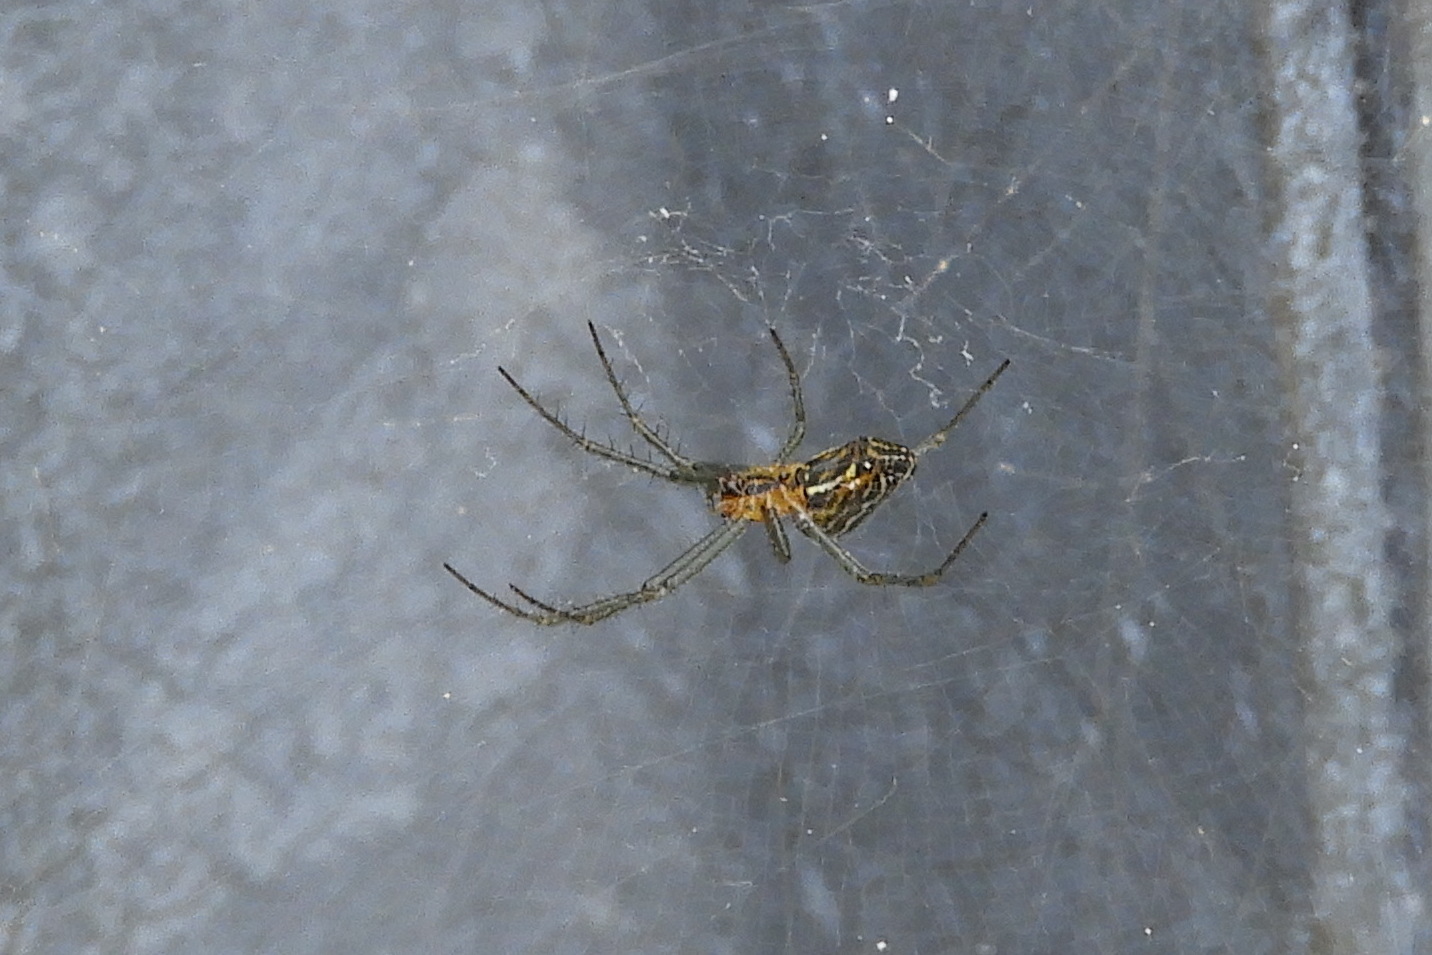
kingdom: Animalia
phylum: Arthropoda
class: Arachnida
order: Araneae
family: Araneidae
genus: Mecynogea
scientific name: Mecynogea lemniscata
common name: Orb weavers
